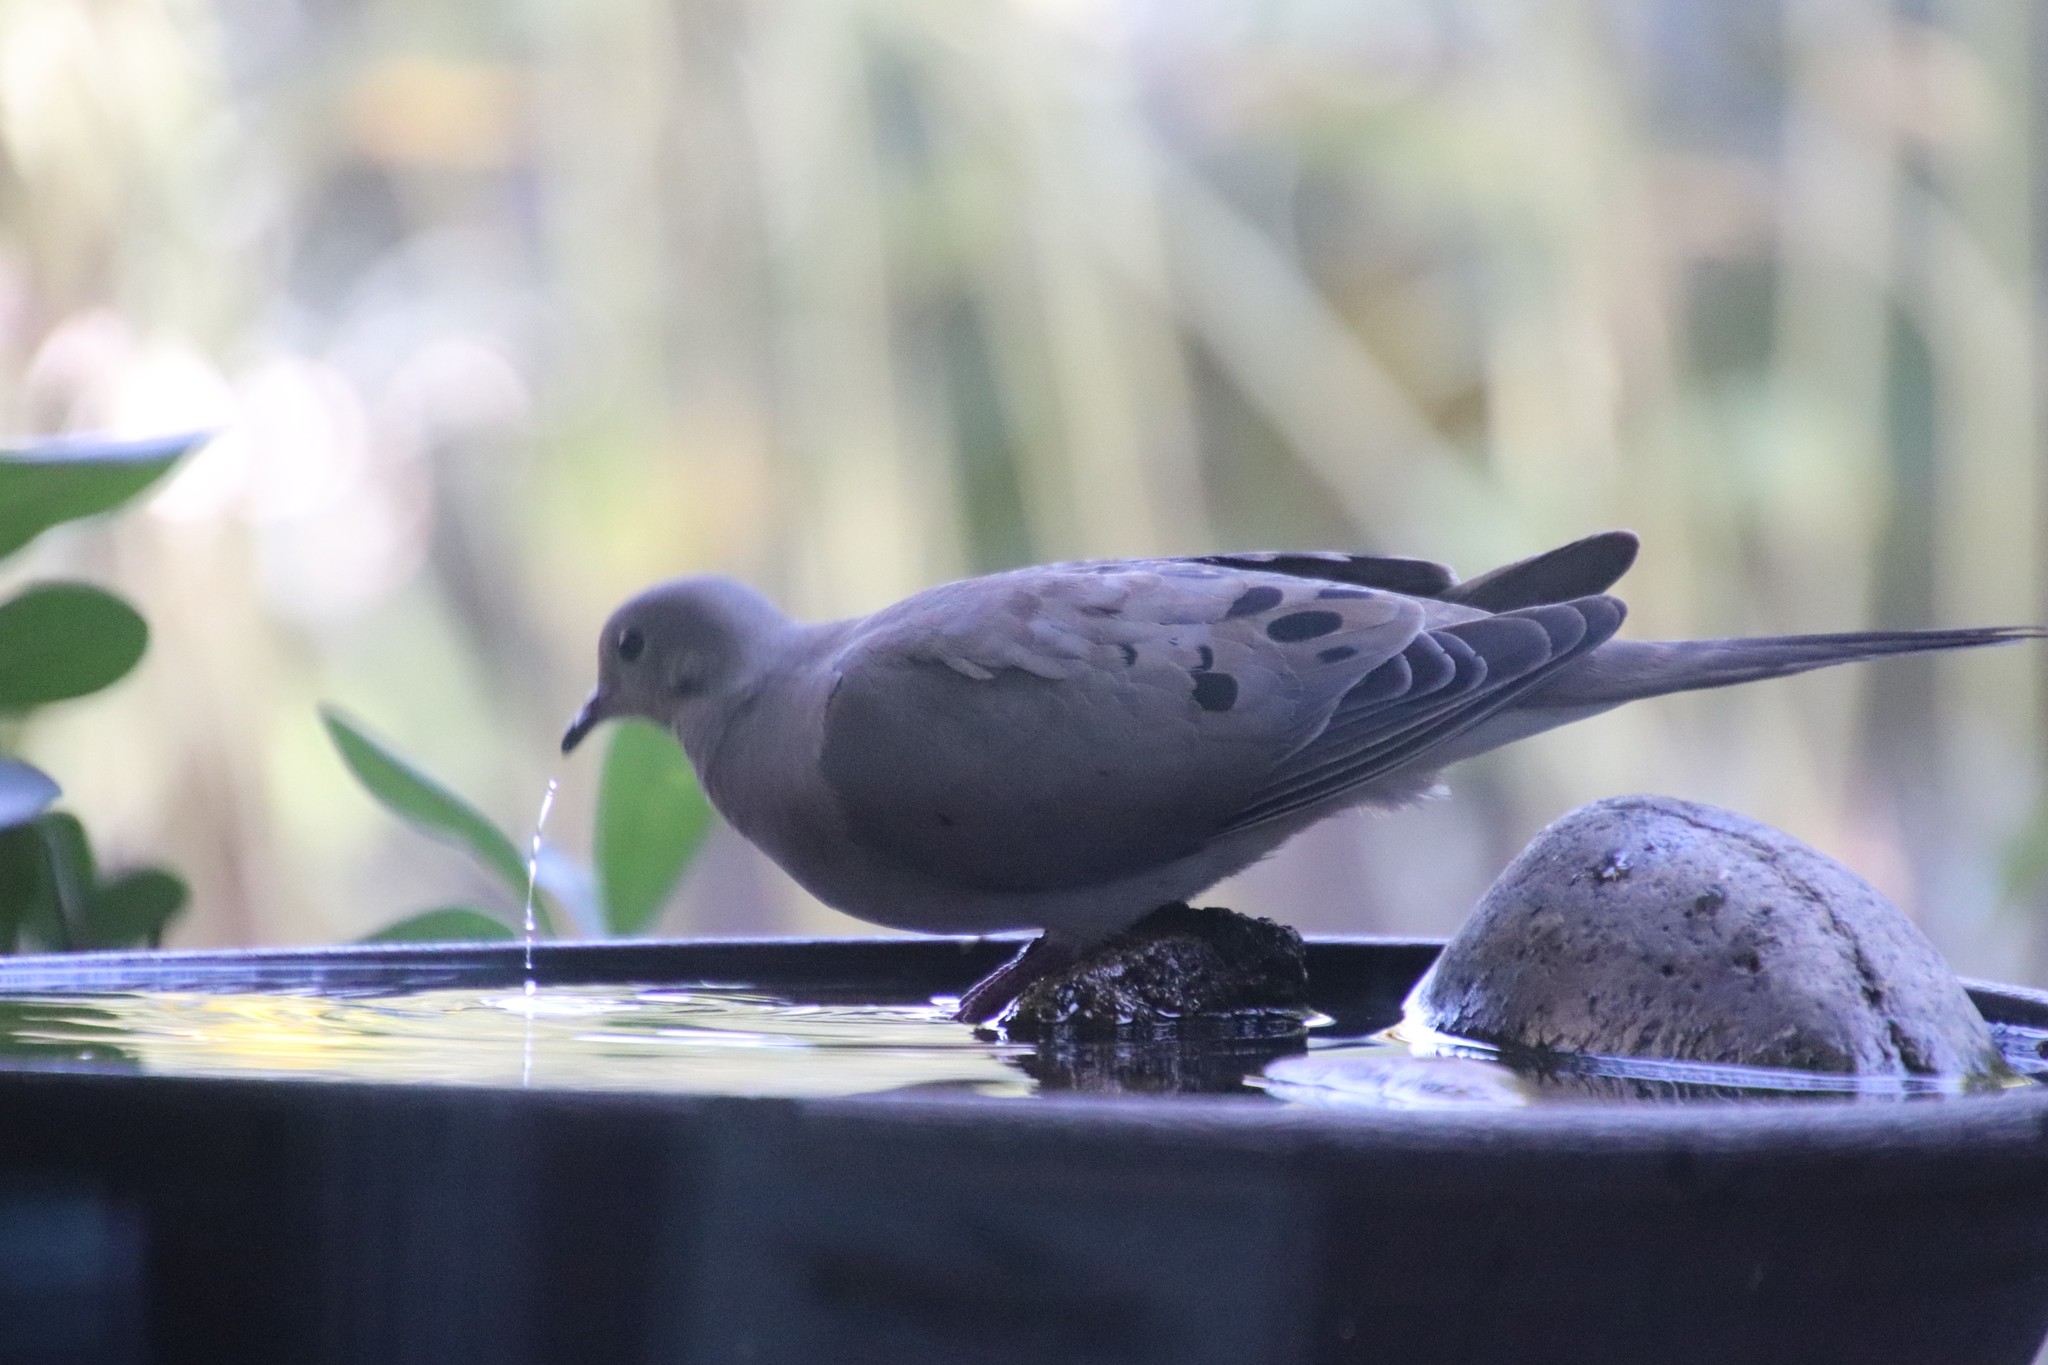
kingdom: Animalia
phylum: Chordata
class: Aves
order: Columbiformes
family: Columbidae
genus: Zenaida
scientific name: Zenaida macroura
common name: Mourning dove
